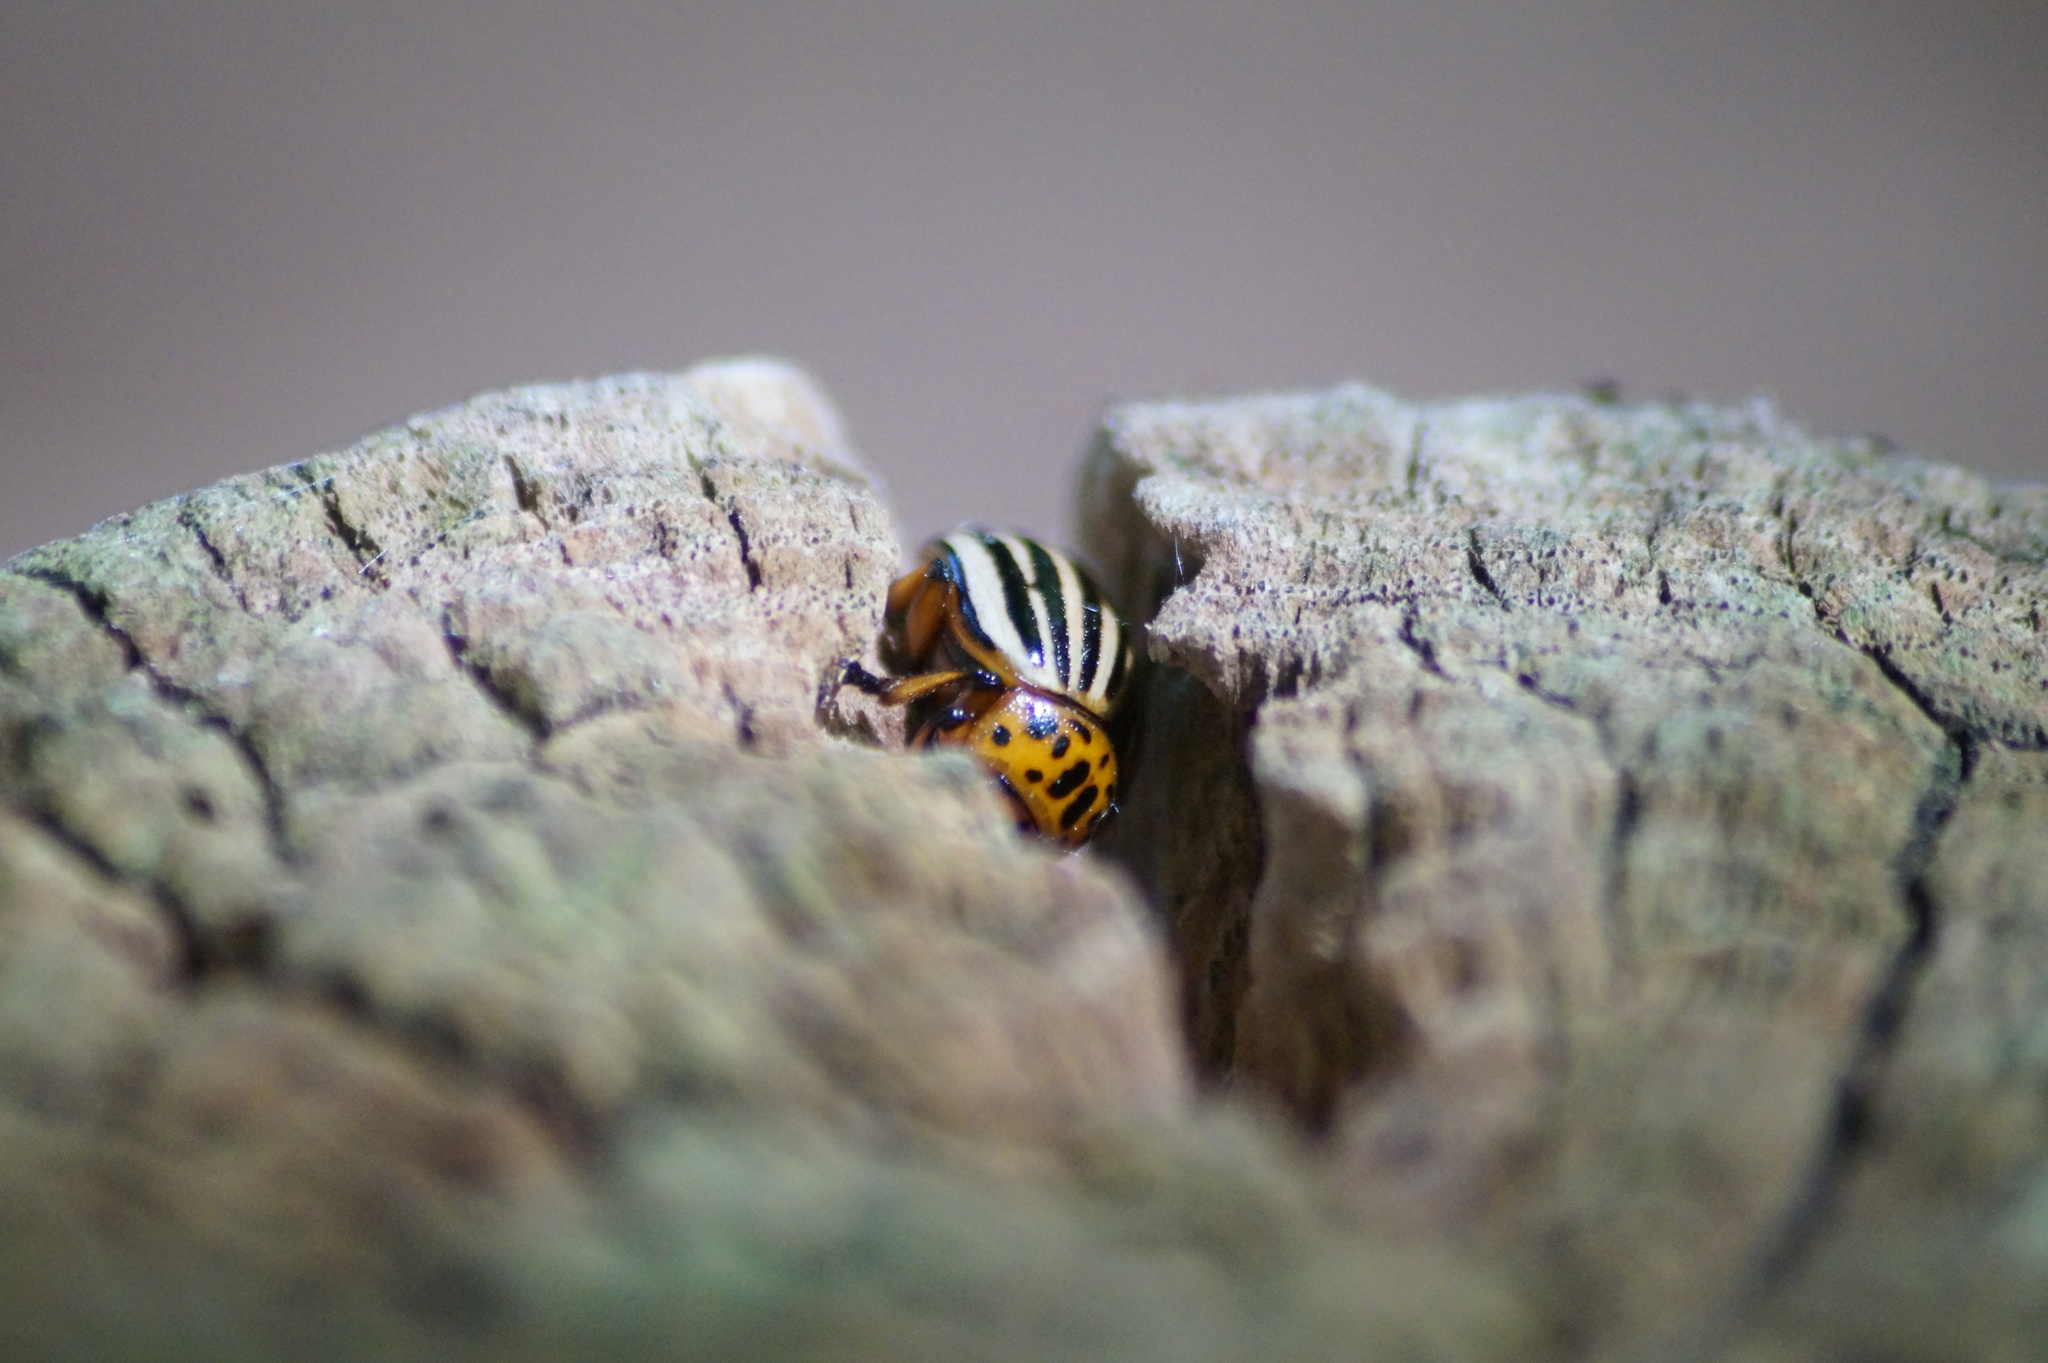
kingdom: Animalia
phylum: Arthropoda
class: Insecta
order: Coleoptera
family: Chrysomelidae
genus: Leptinotarsa
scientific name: Leptinotarsa decemlineata
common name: Colorado potato beetle
